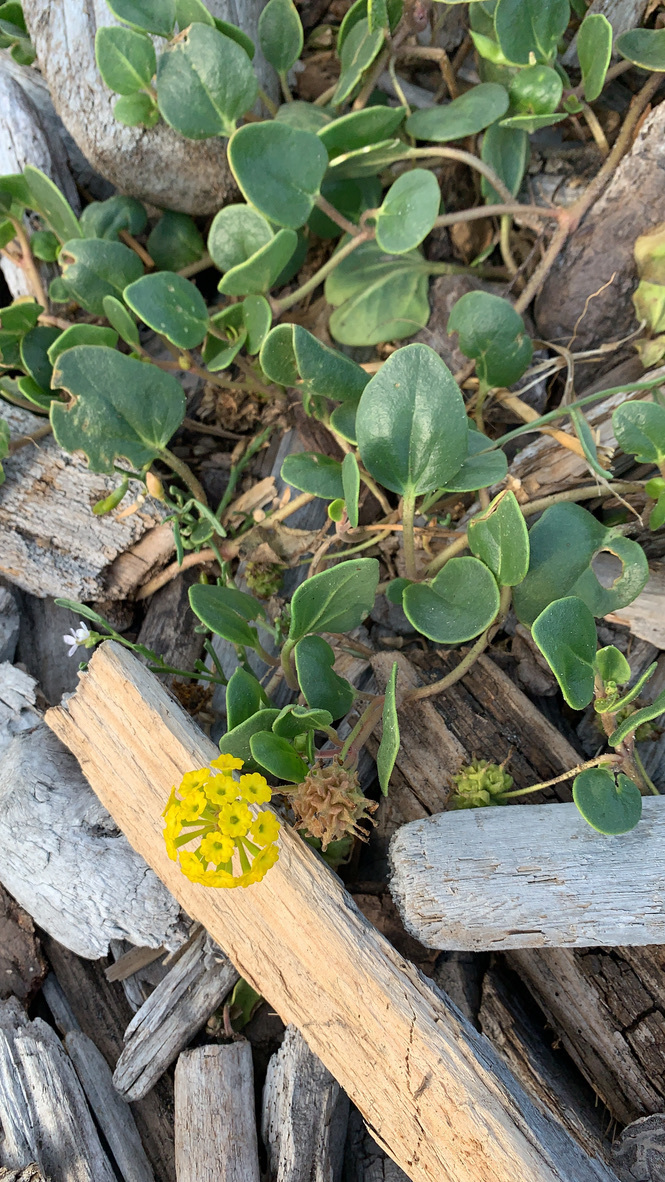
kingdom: Plantae
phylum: Tracheophyta
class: Magnoliopsida
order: Caryophyllales
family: Nyctaginaceae
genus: Abronia
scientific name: Abronia latifolia
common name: Yellow sand-verbena
